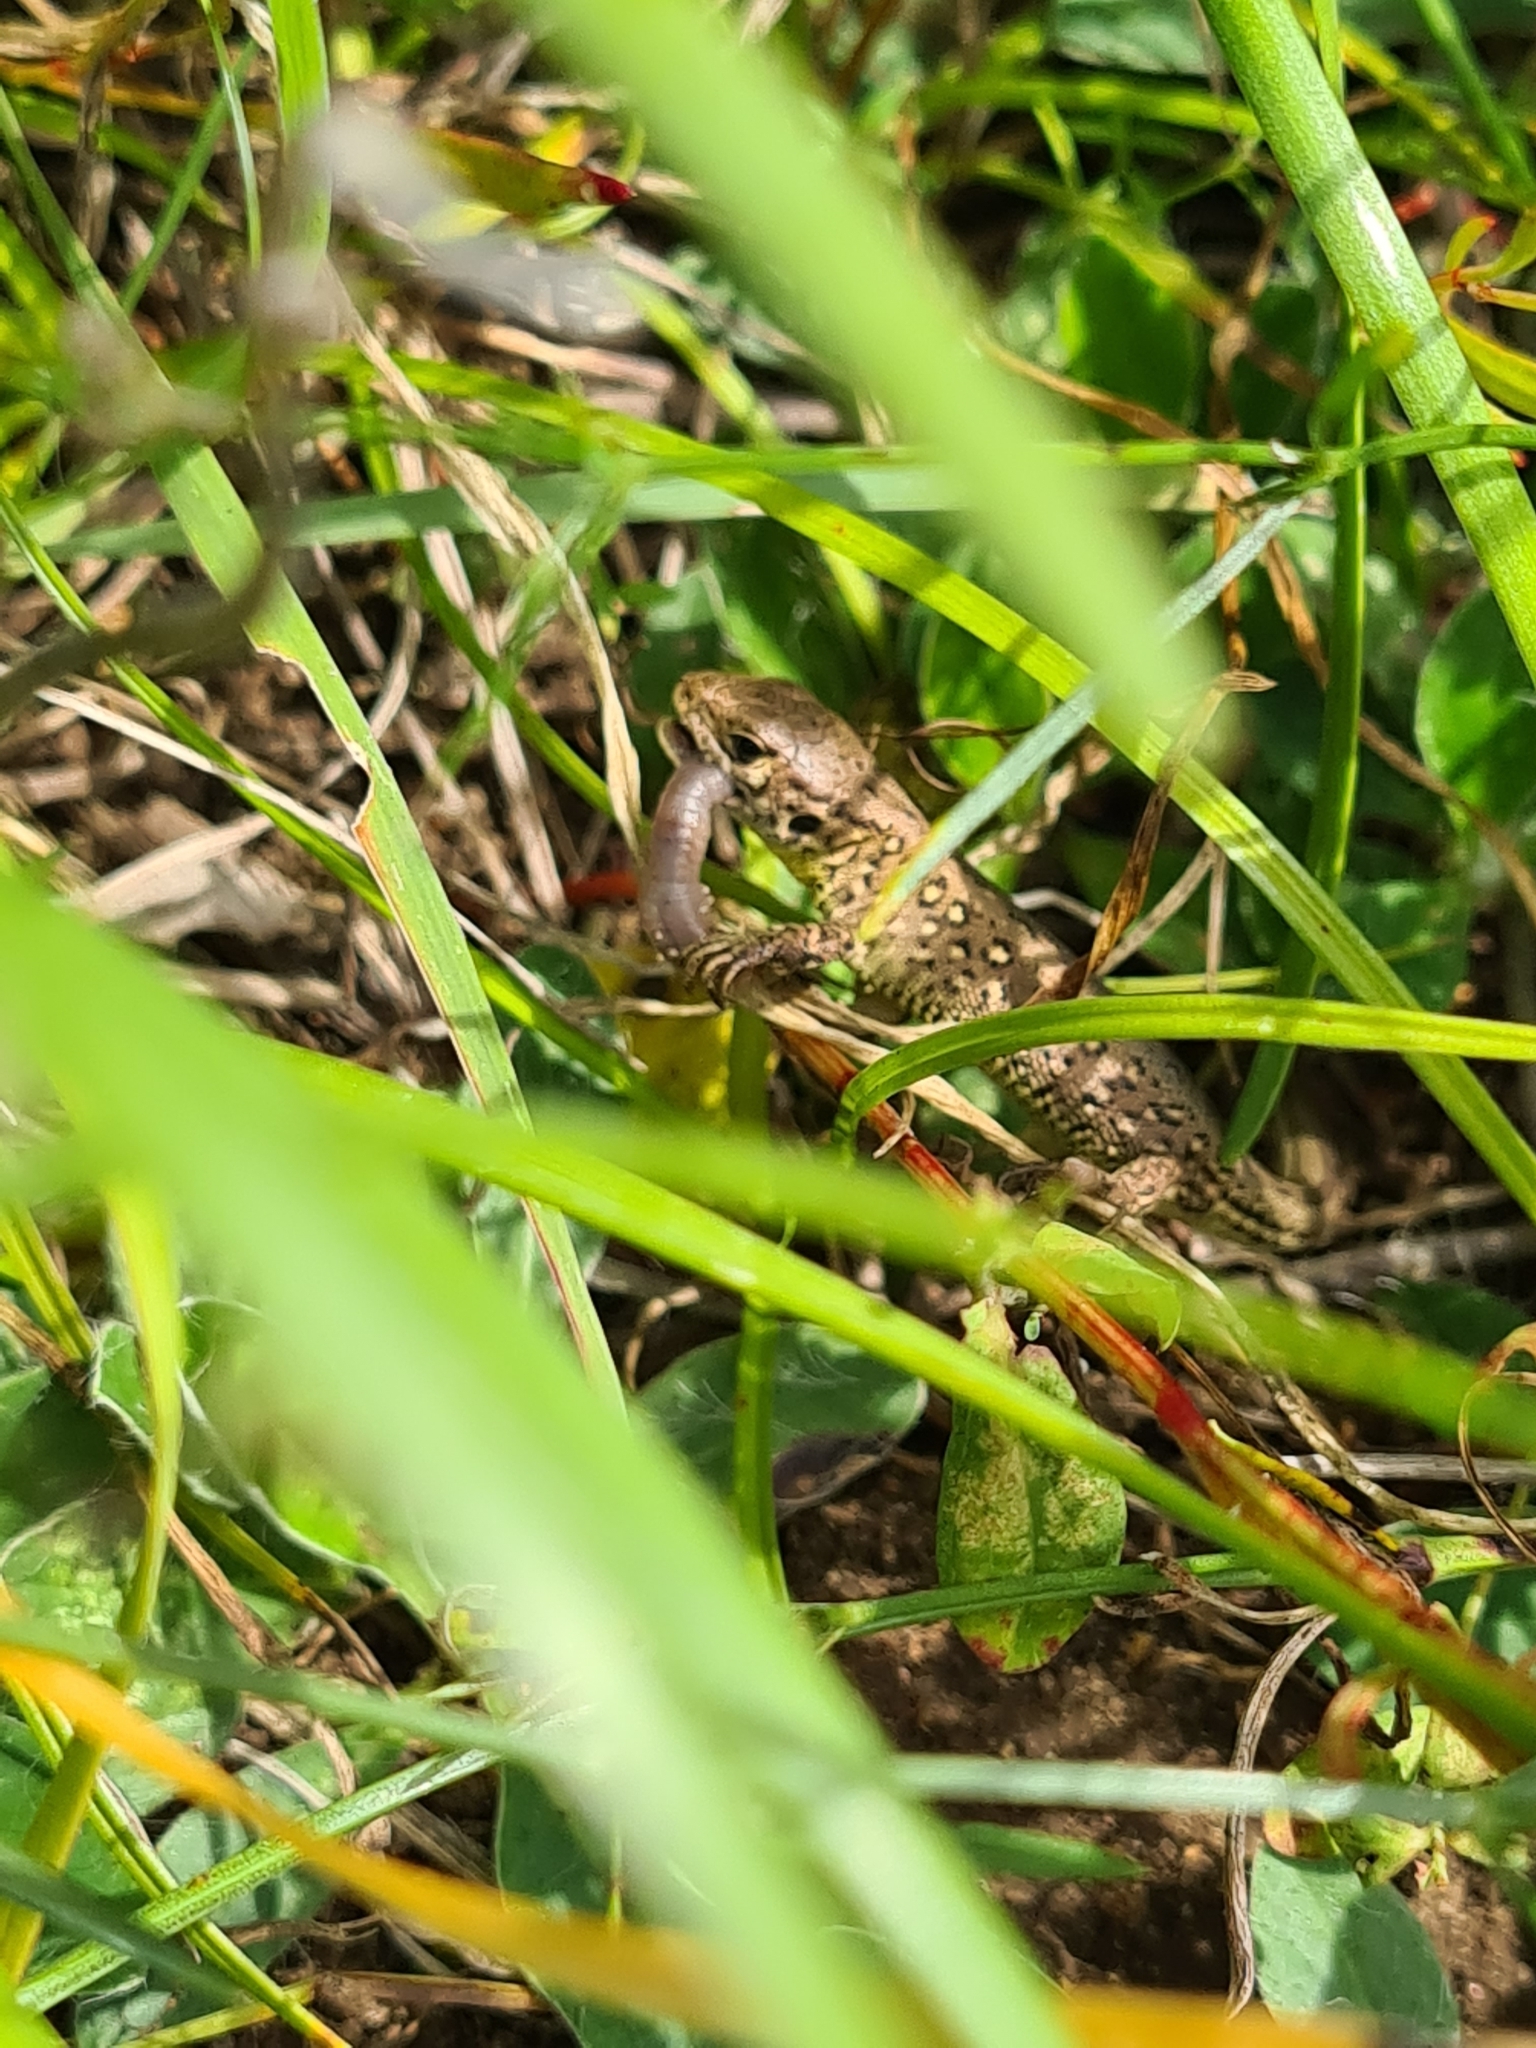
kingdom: Animalia
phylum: Chordata
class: Squamata
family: Lacertidae
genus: Lacerta
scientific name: Lacerta agilis
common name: Sand lizard
